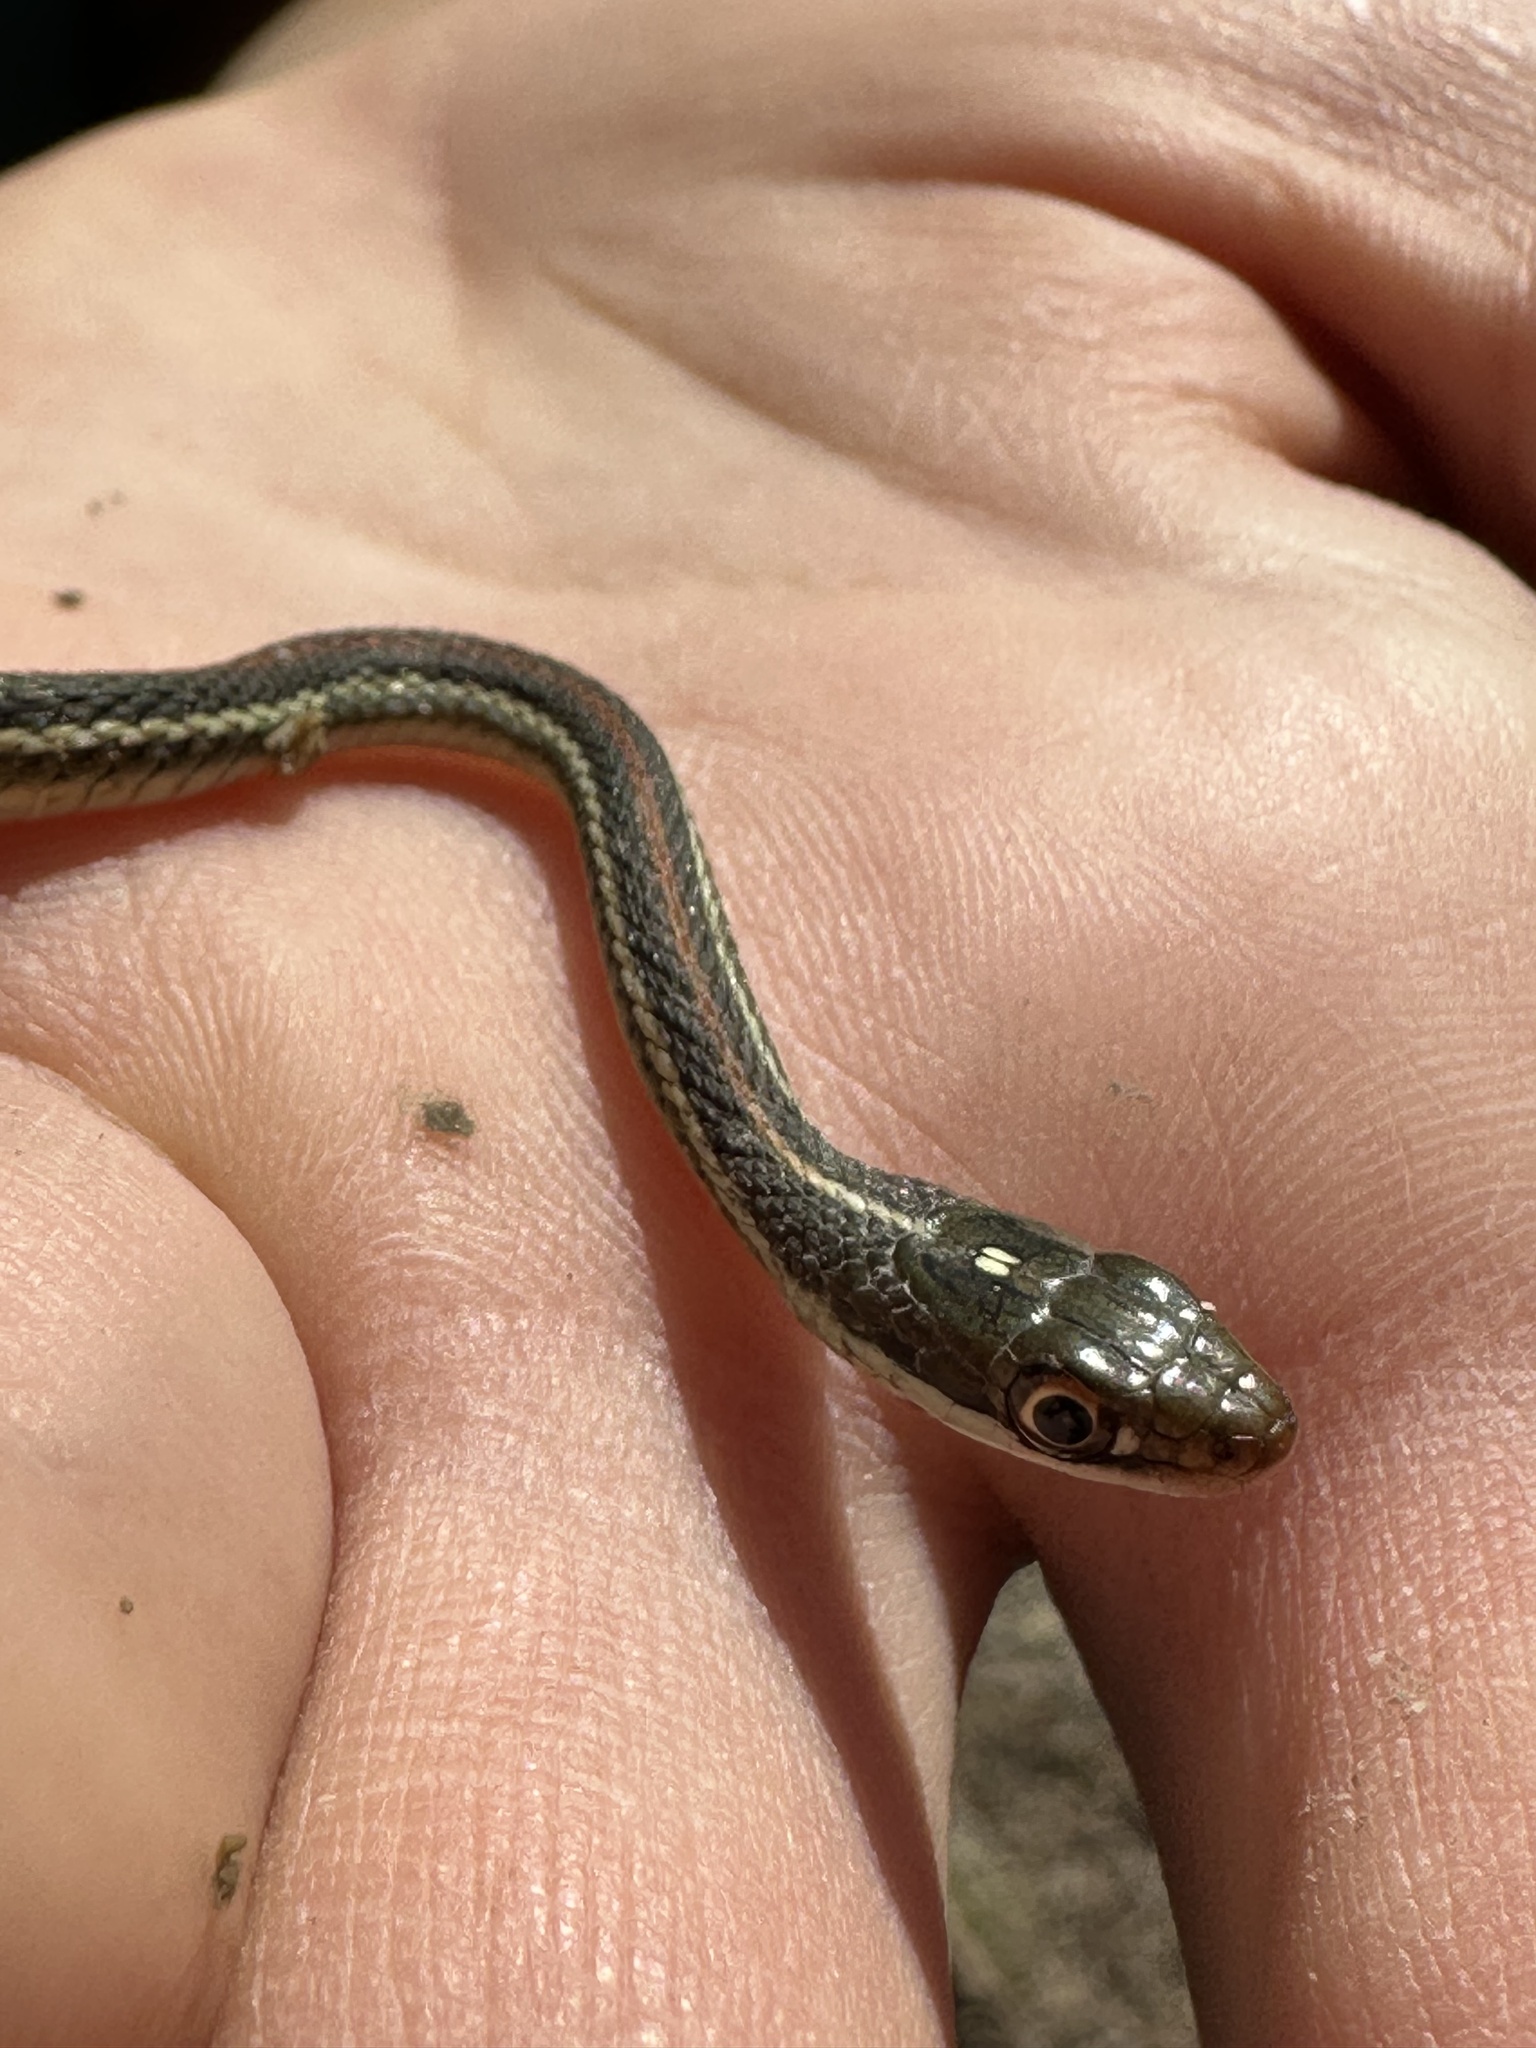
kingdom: Animalia
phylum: Chordata
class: Squamata
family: Colubridae
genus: Thamnophis
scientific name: Thamnophis proximus
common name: Western ribbon snake
